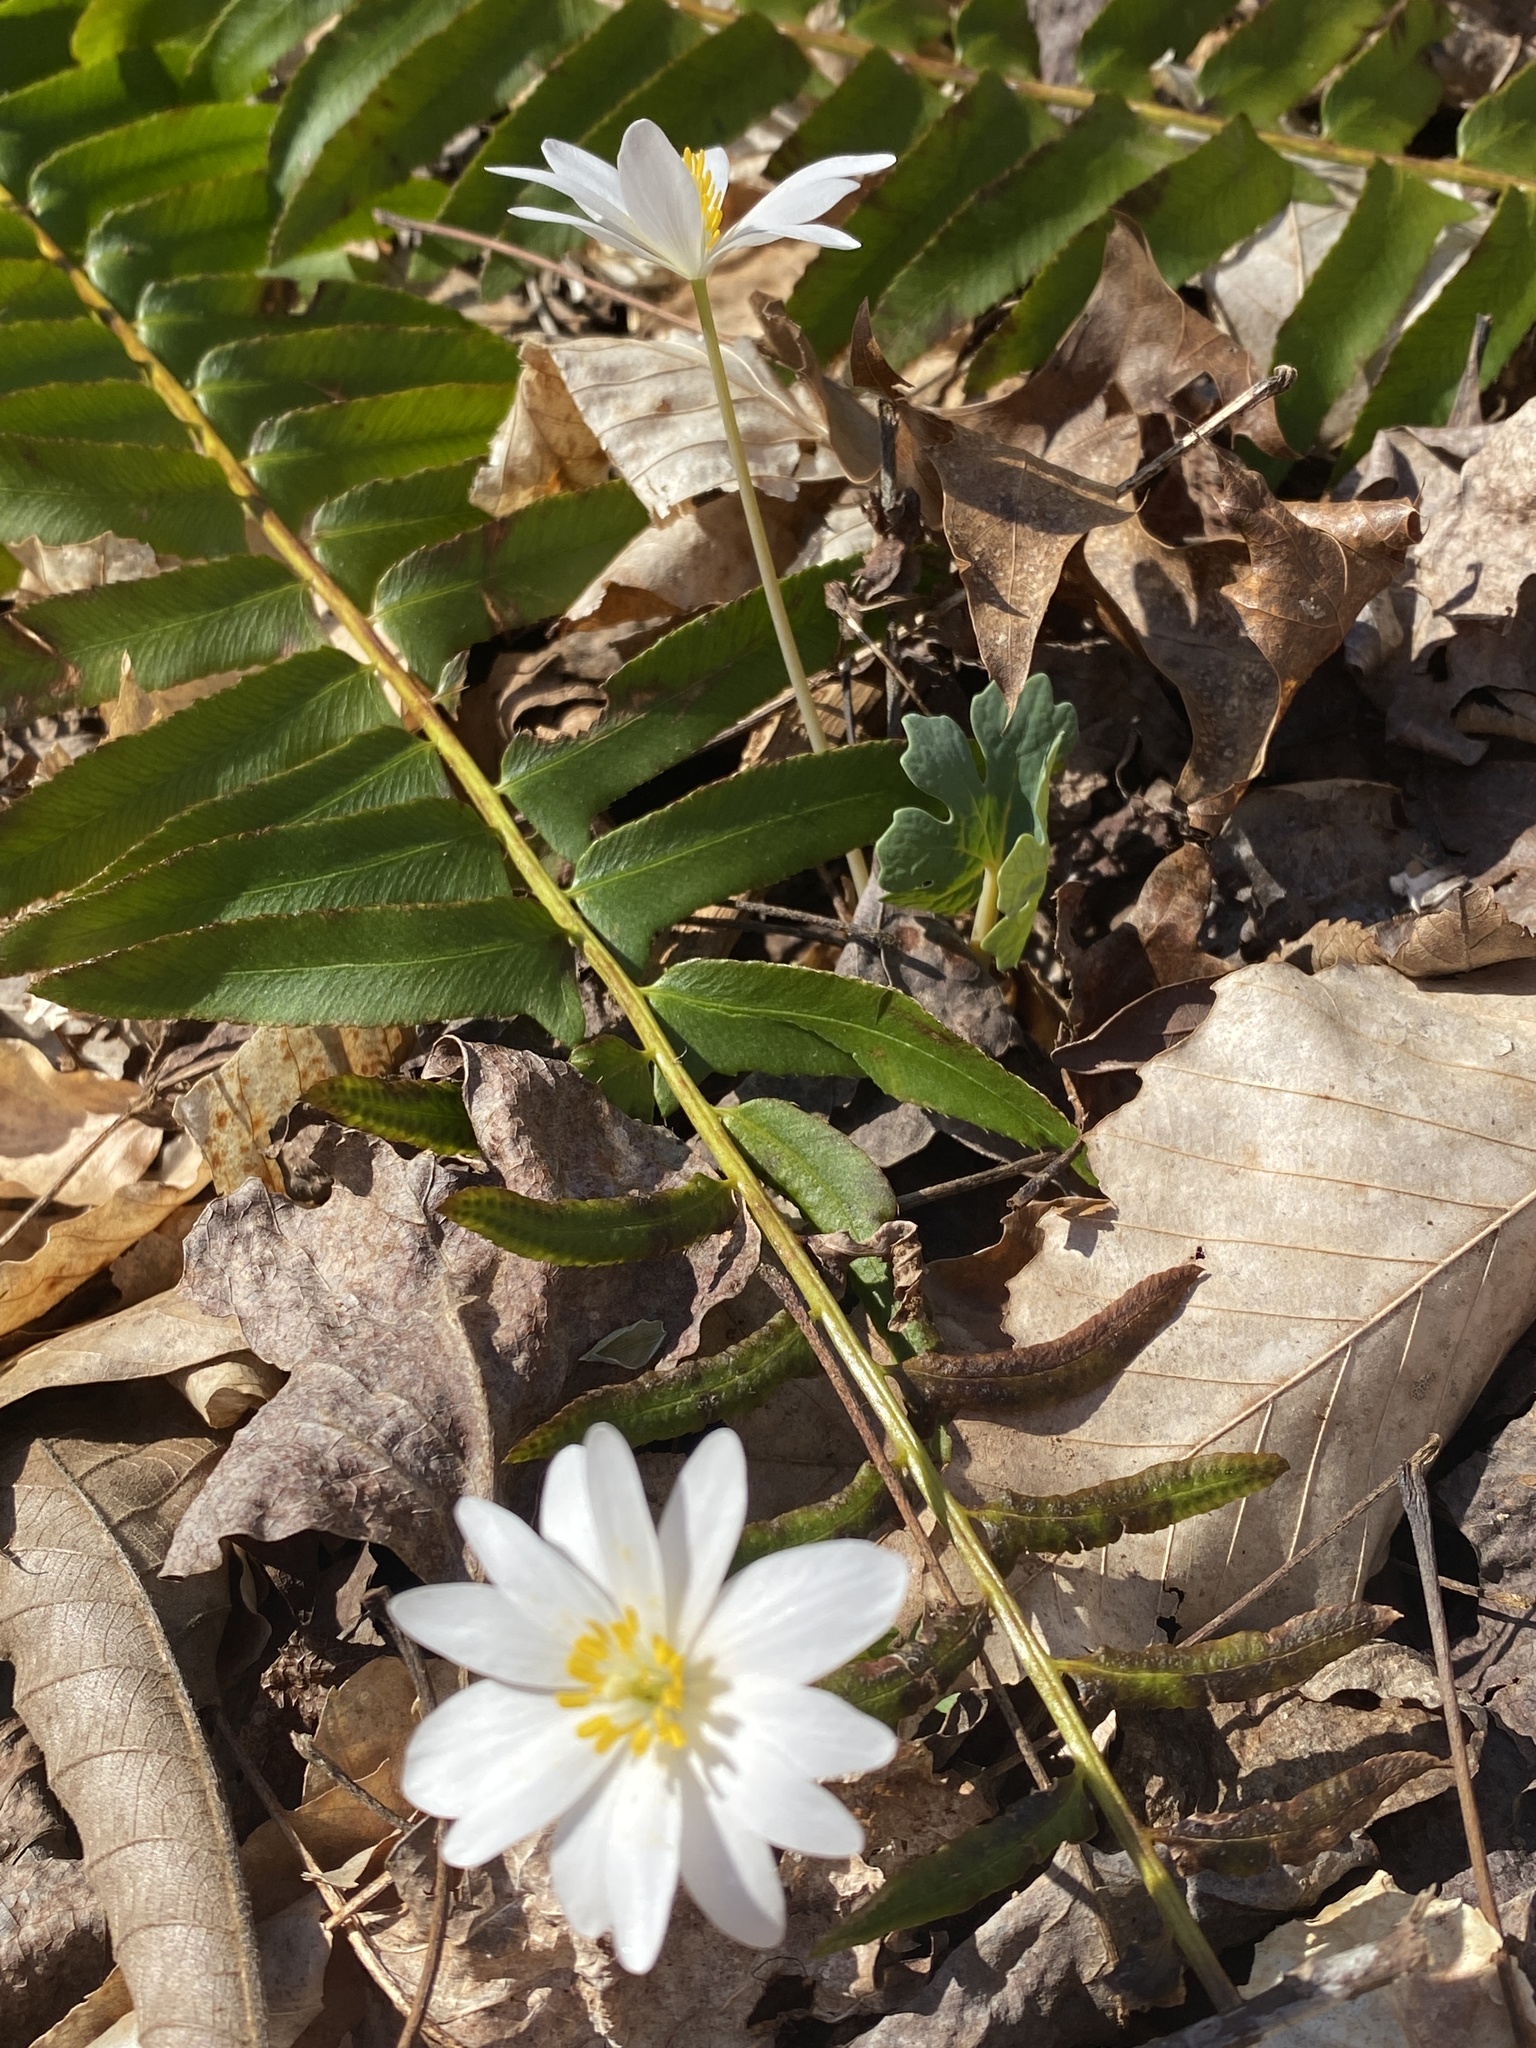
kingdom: Plantae
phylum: Tracheophyta
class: Magnoliopsida
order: Ranunculales
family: Papaveraceae
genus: Sanguinaria
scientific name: Sanguinaria canadensis
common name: Bloodroot
